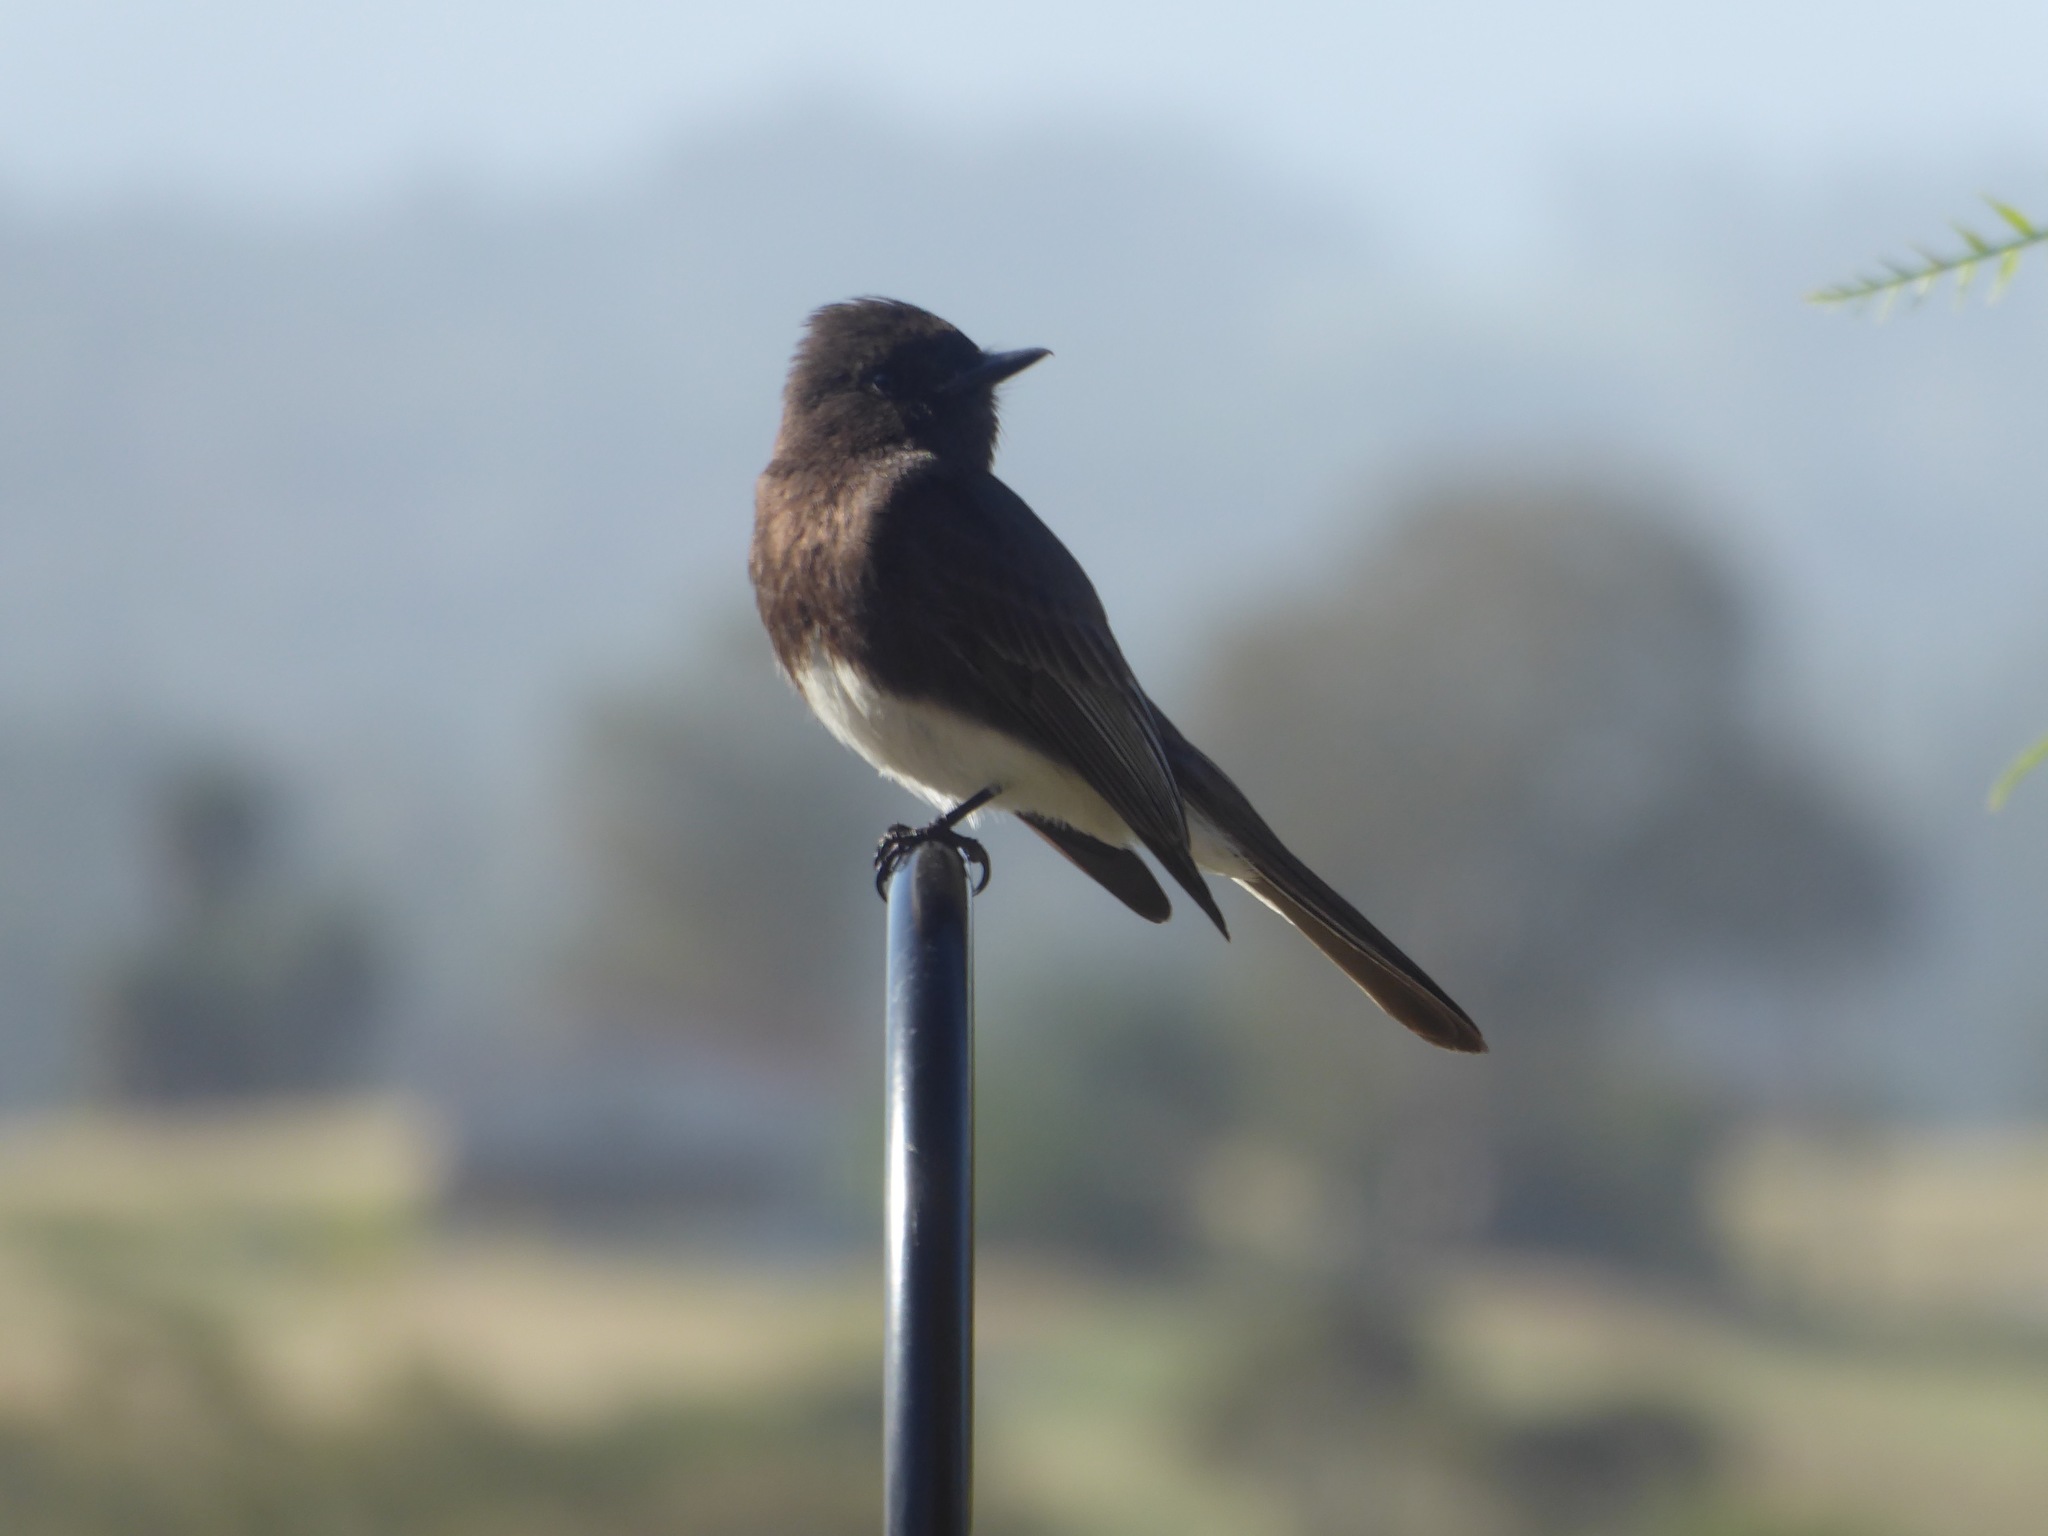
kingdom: Animalia
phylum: Chordata
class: Aves
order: Passeriformes
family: Tyrannidae
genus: Sayornis
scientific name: Sayornis nigricans
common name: Black phoebe
